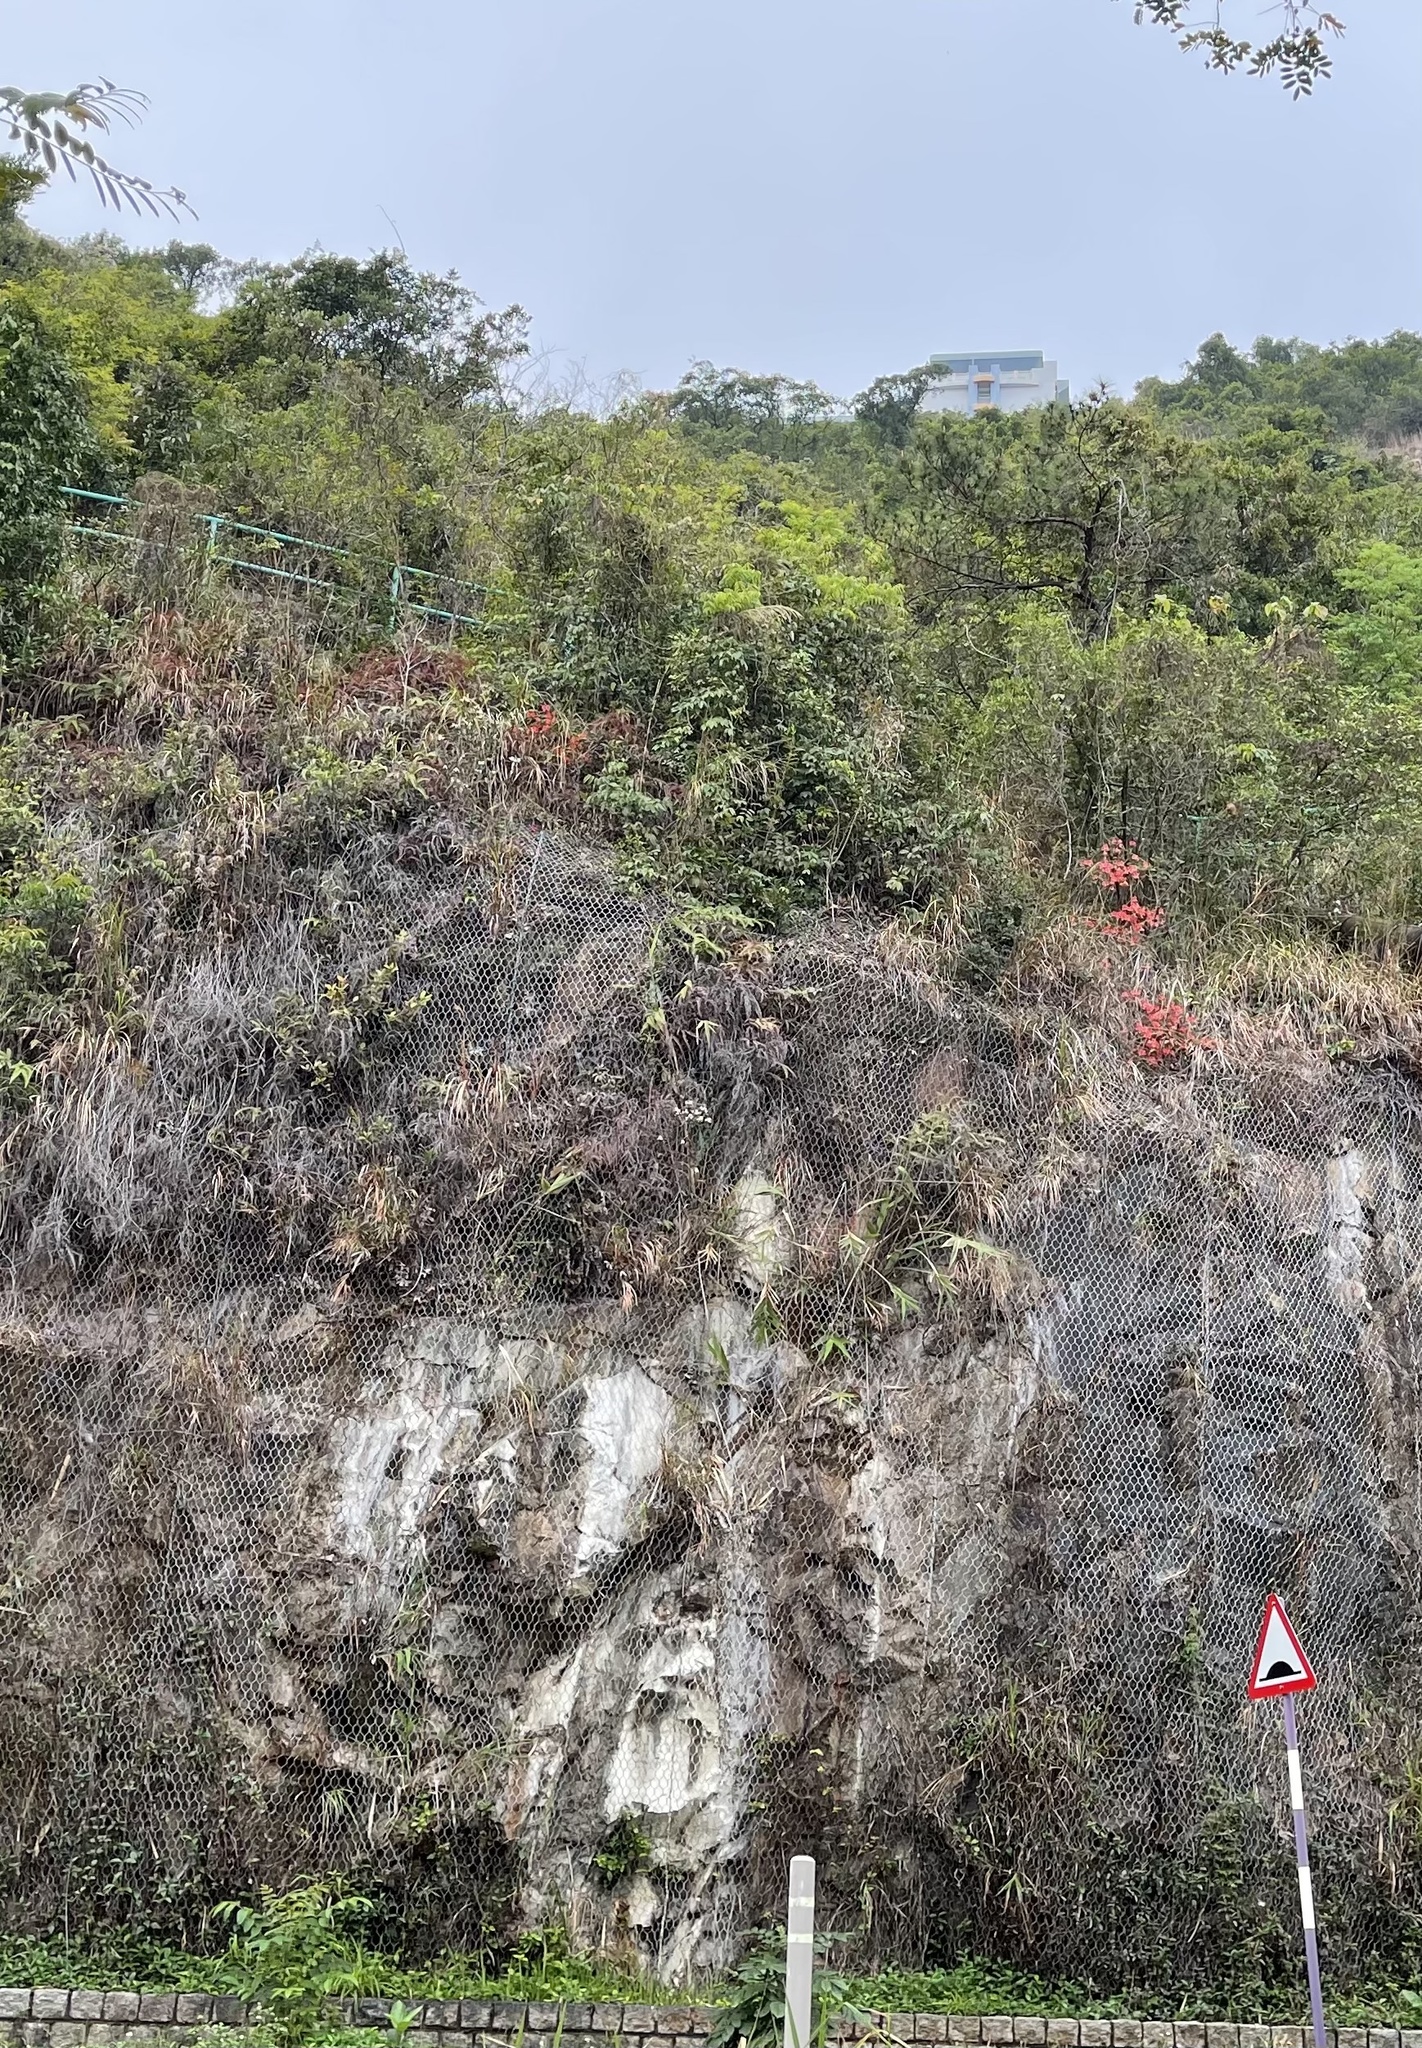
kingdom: Plantae
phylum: Tracheophyta
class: Magnoliopsida
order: Ericales
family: Ericaceae
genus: Rhododendron
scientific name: Rhododendron simsii
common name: Rhododendron
